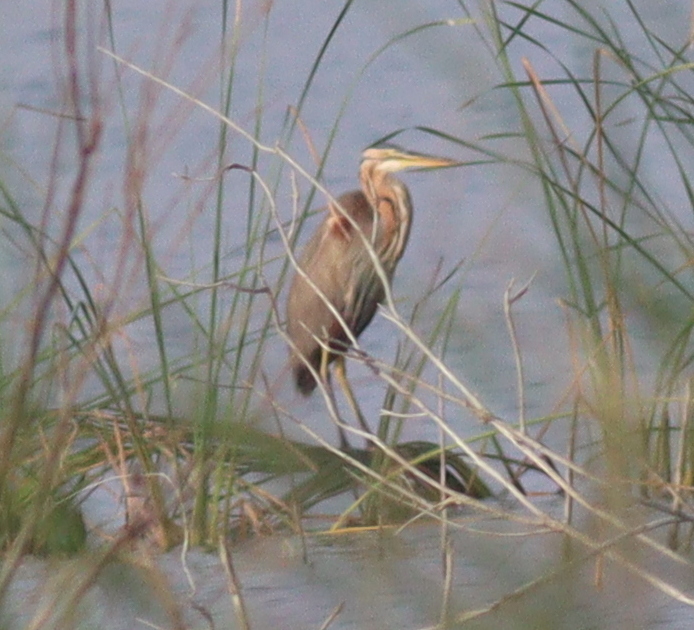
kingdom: Animalia
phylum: Chordata
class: Aves
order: Pelecaniformes
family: Ardeidae
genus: Ardea
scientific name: Ardea purpurea
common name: Purple heron
